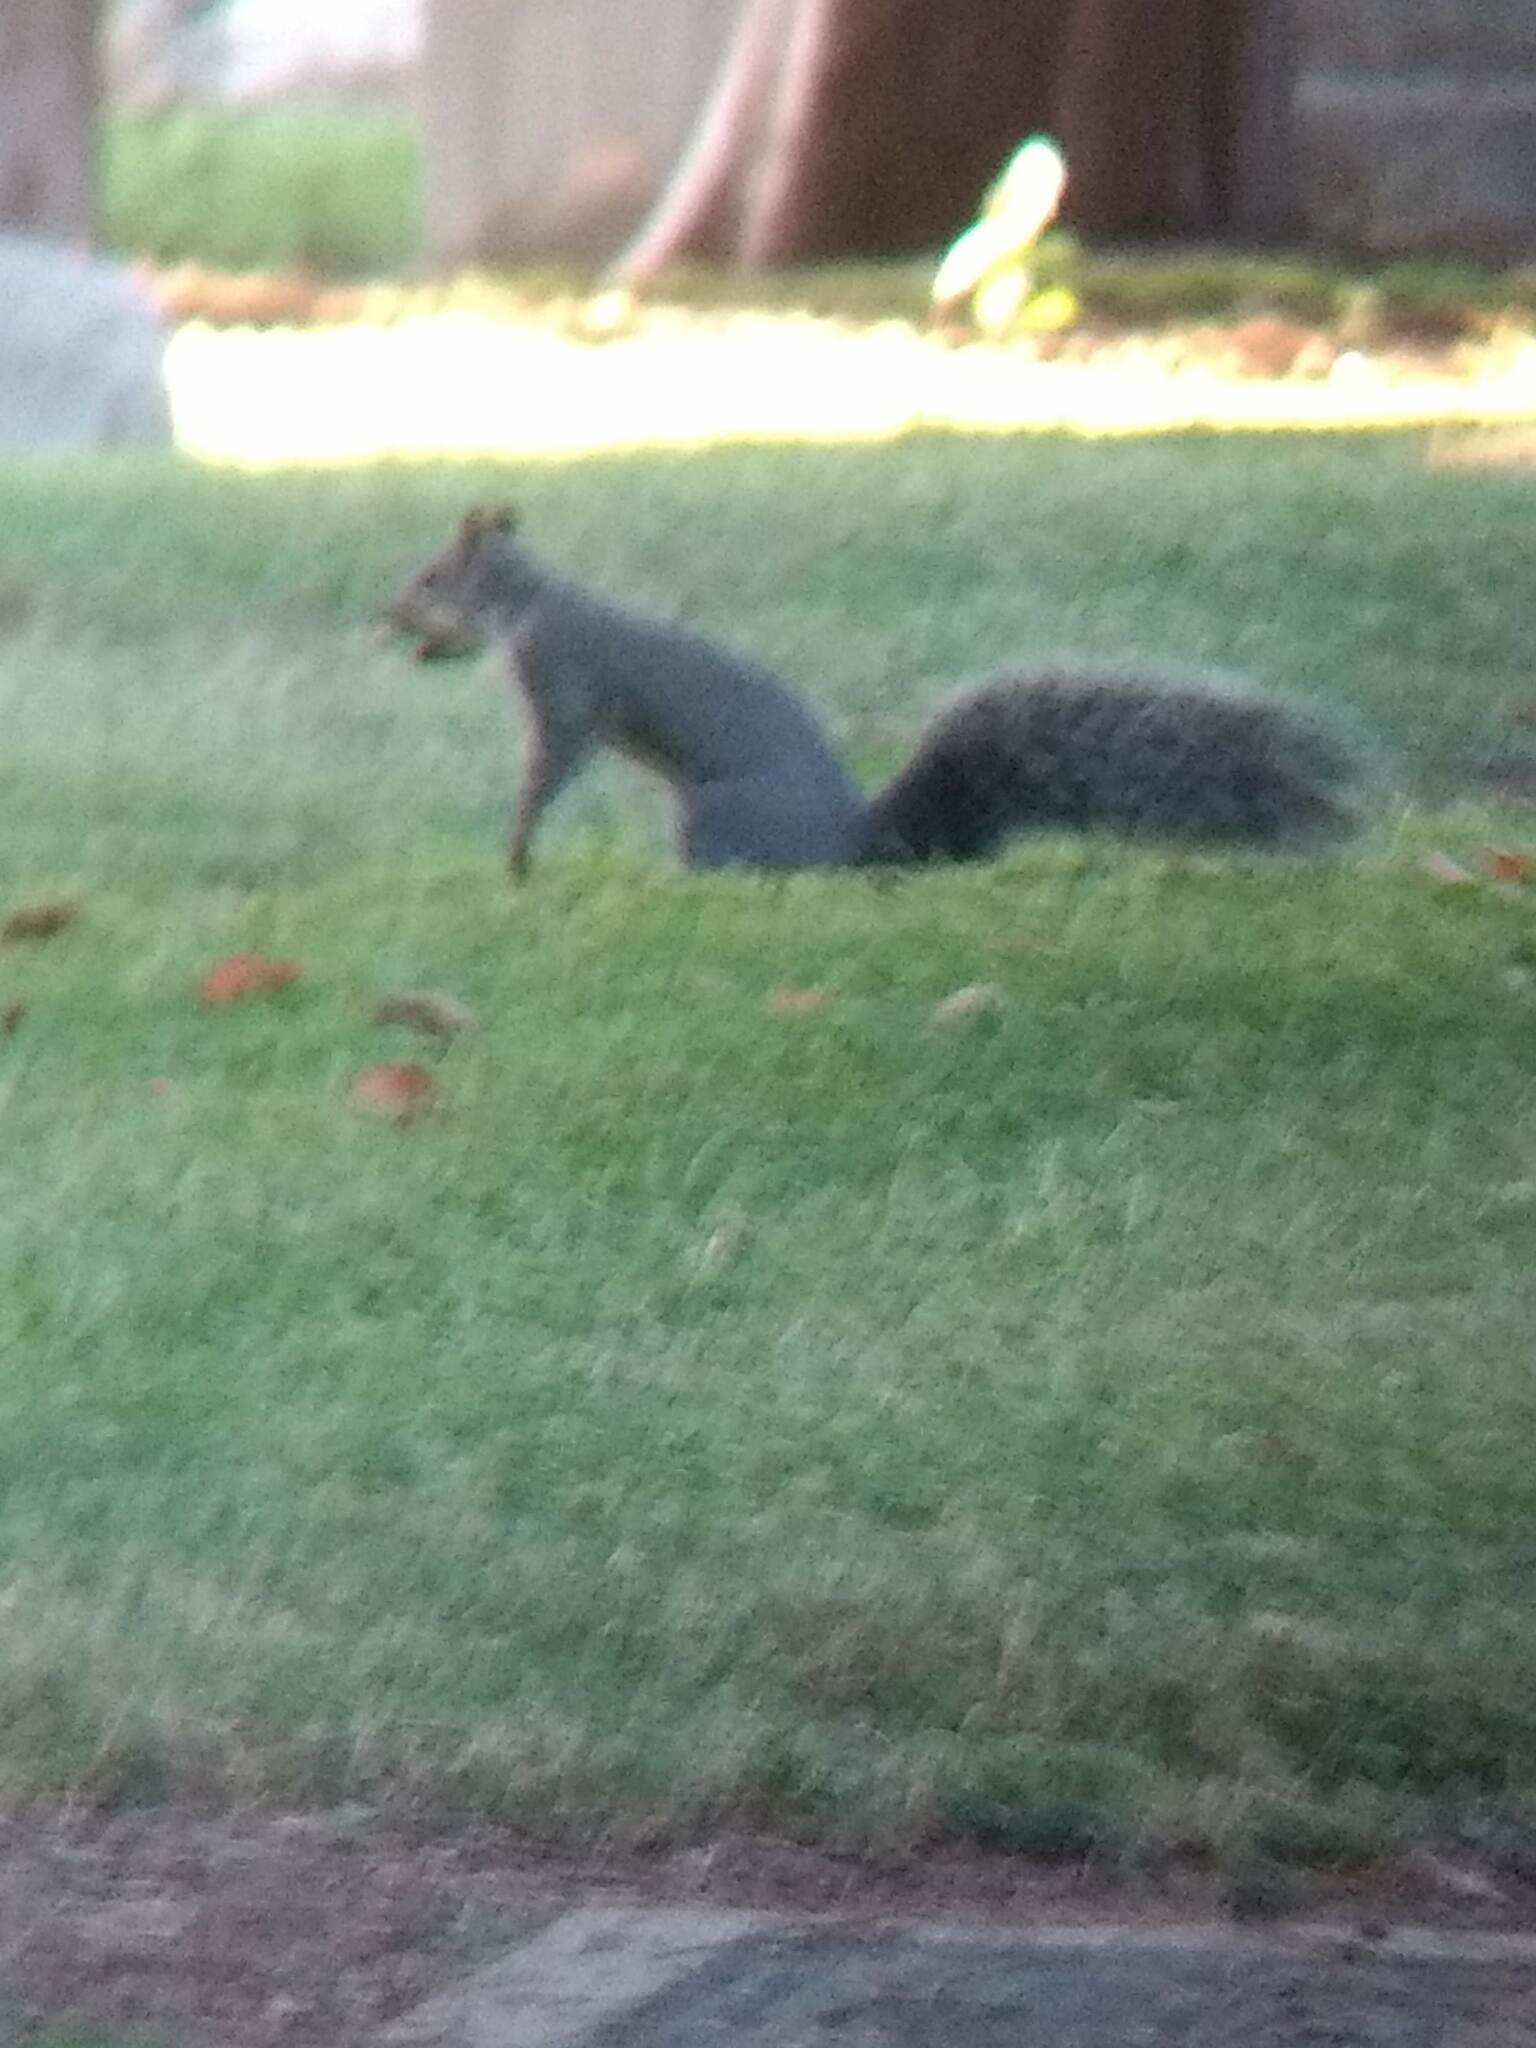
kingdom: Animalia
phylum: Chordata
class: Mammalia
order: Rodentia
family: Sciuridae
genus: Sciurus
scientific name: Sciurus griseus
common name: Western gray squirrel
